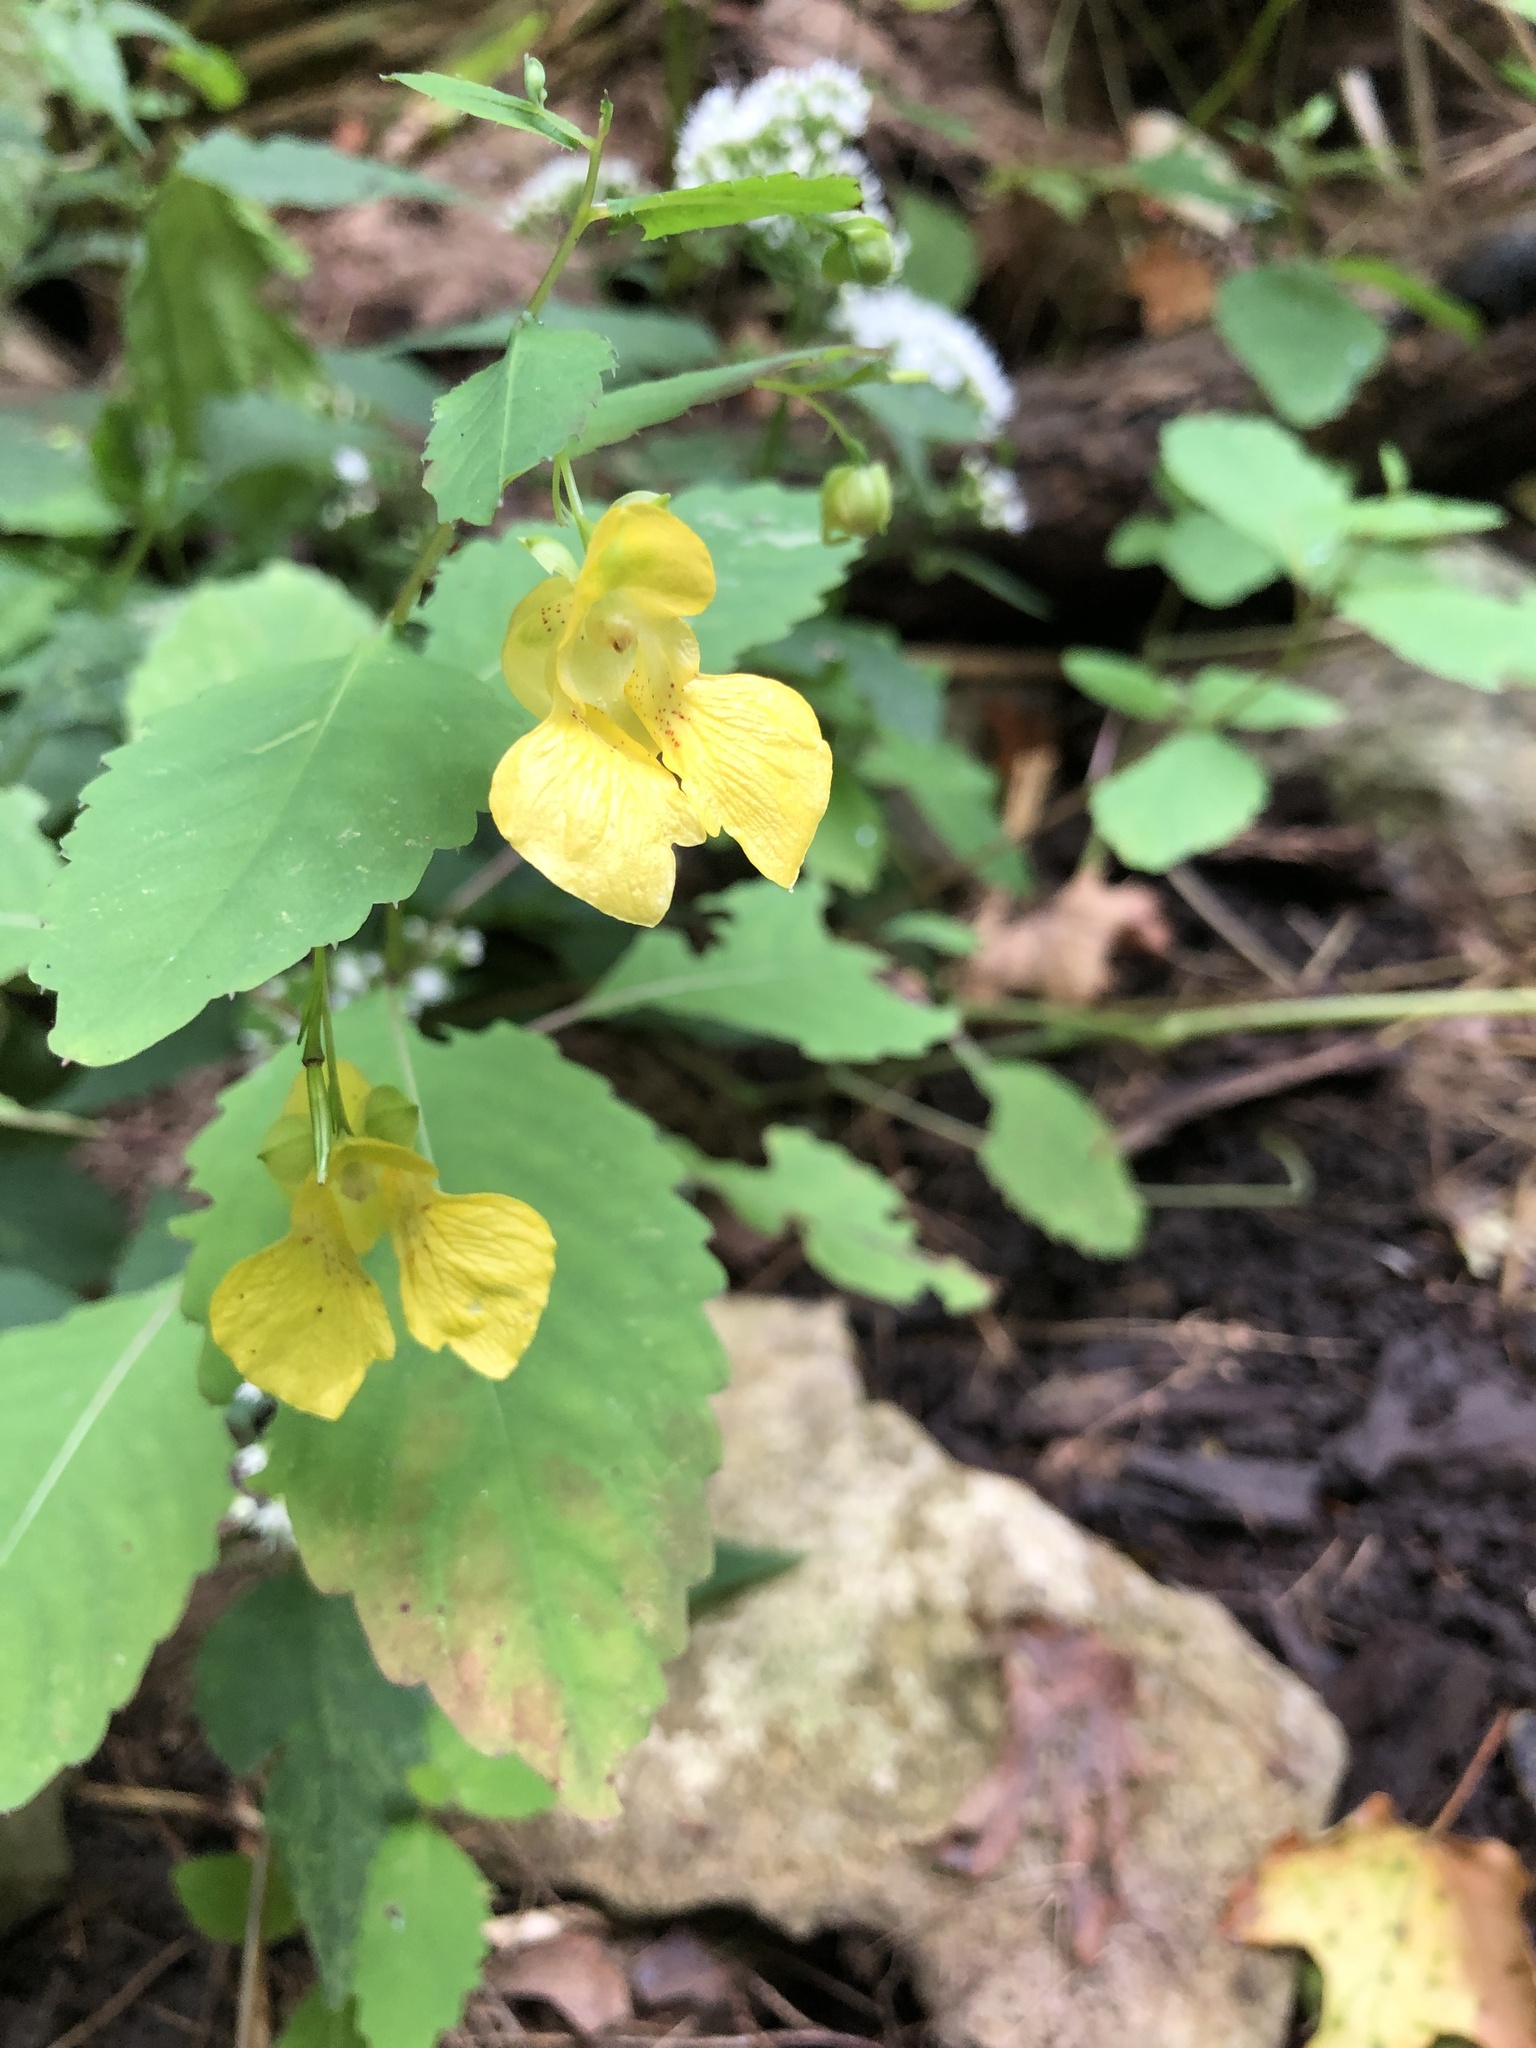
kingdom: Plantae
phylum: Tracheophyta
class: Magnoliopsida
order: Ericales
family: Balsaminaceae
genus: Impatiens
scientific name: Impatiens pallida
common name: Pale snapweed
